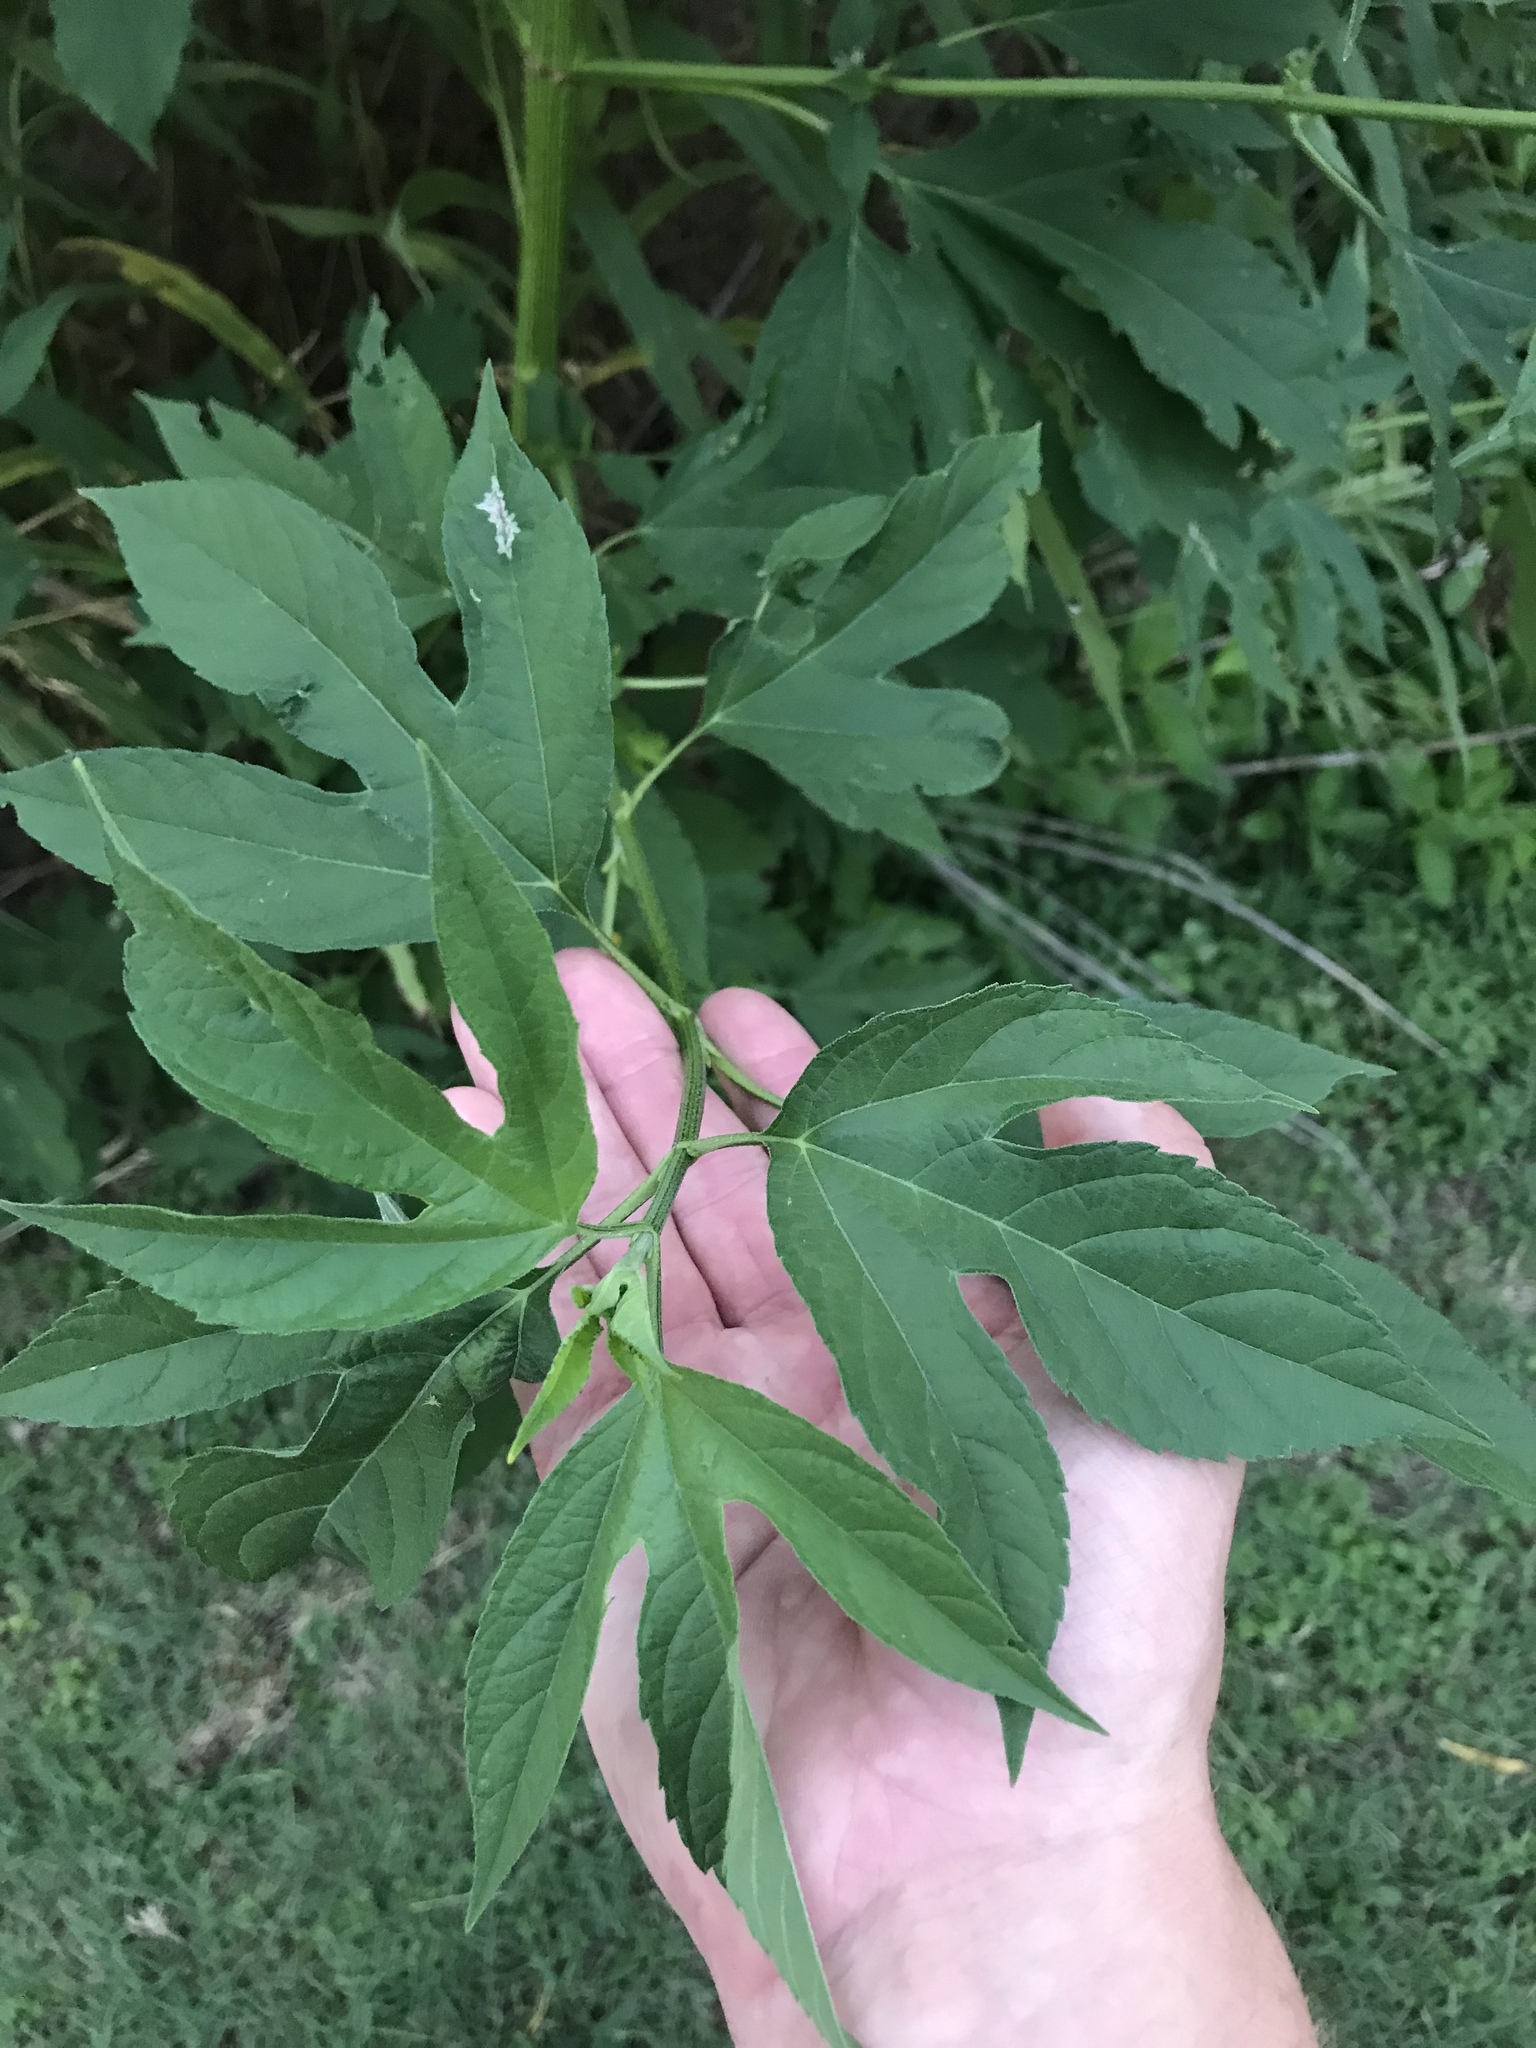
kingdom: Plantae
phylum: Tracheophyta
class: Magnoliopsida
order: Asterales
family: Asteraceae
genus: Ambrosia
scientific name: Ambrosia trifida
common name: Giant ragweed
